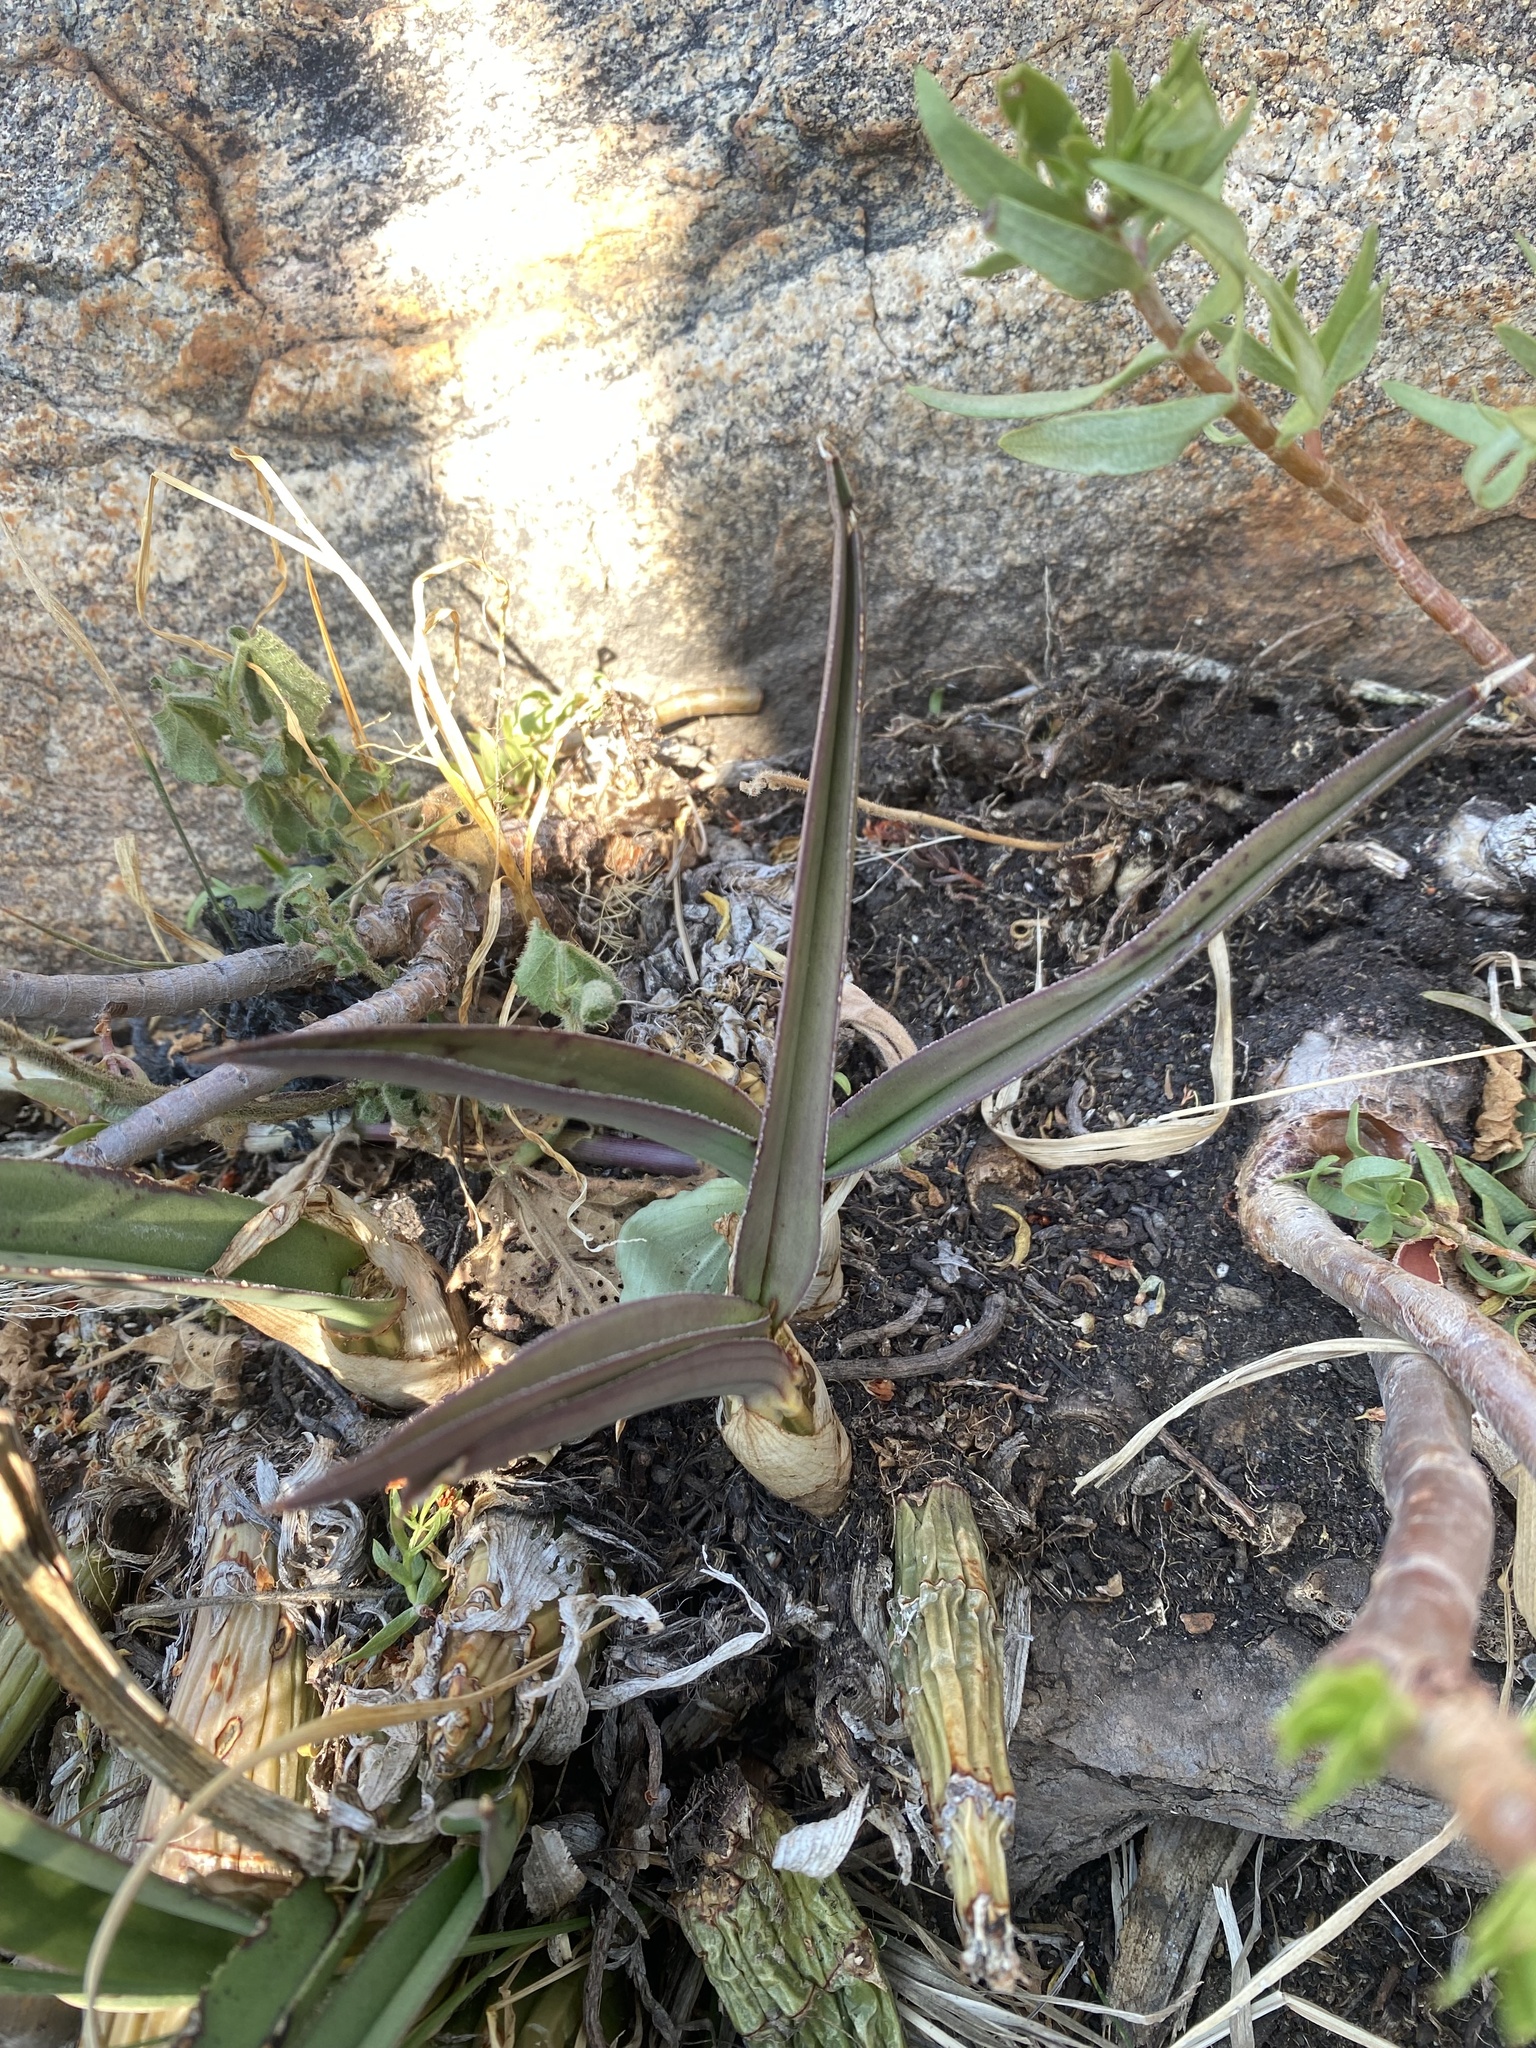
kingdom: Plantae
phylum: Tracheophyta
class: Liliopsida
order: Asparagales
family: Orchidaceae
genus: Eulophia
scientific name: Eulophia petersii
